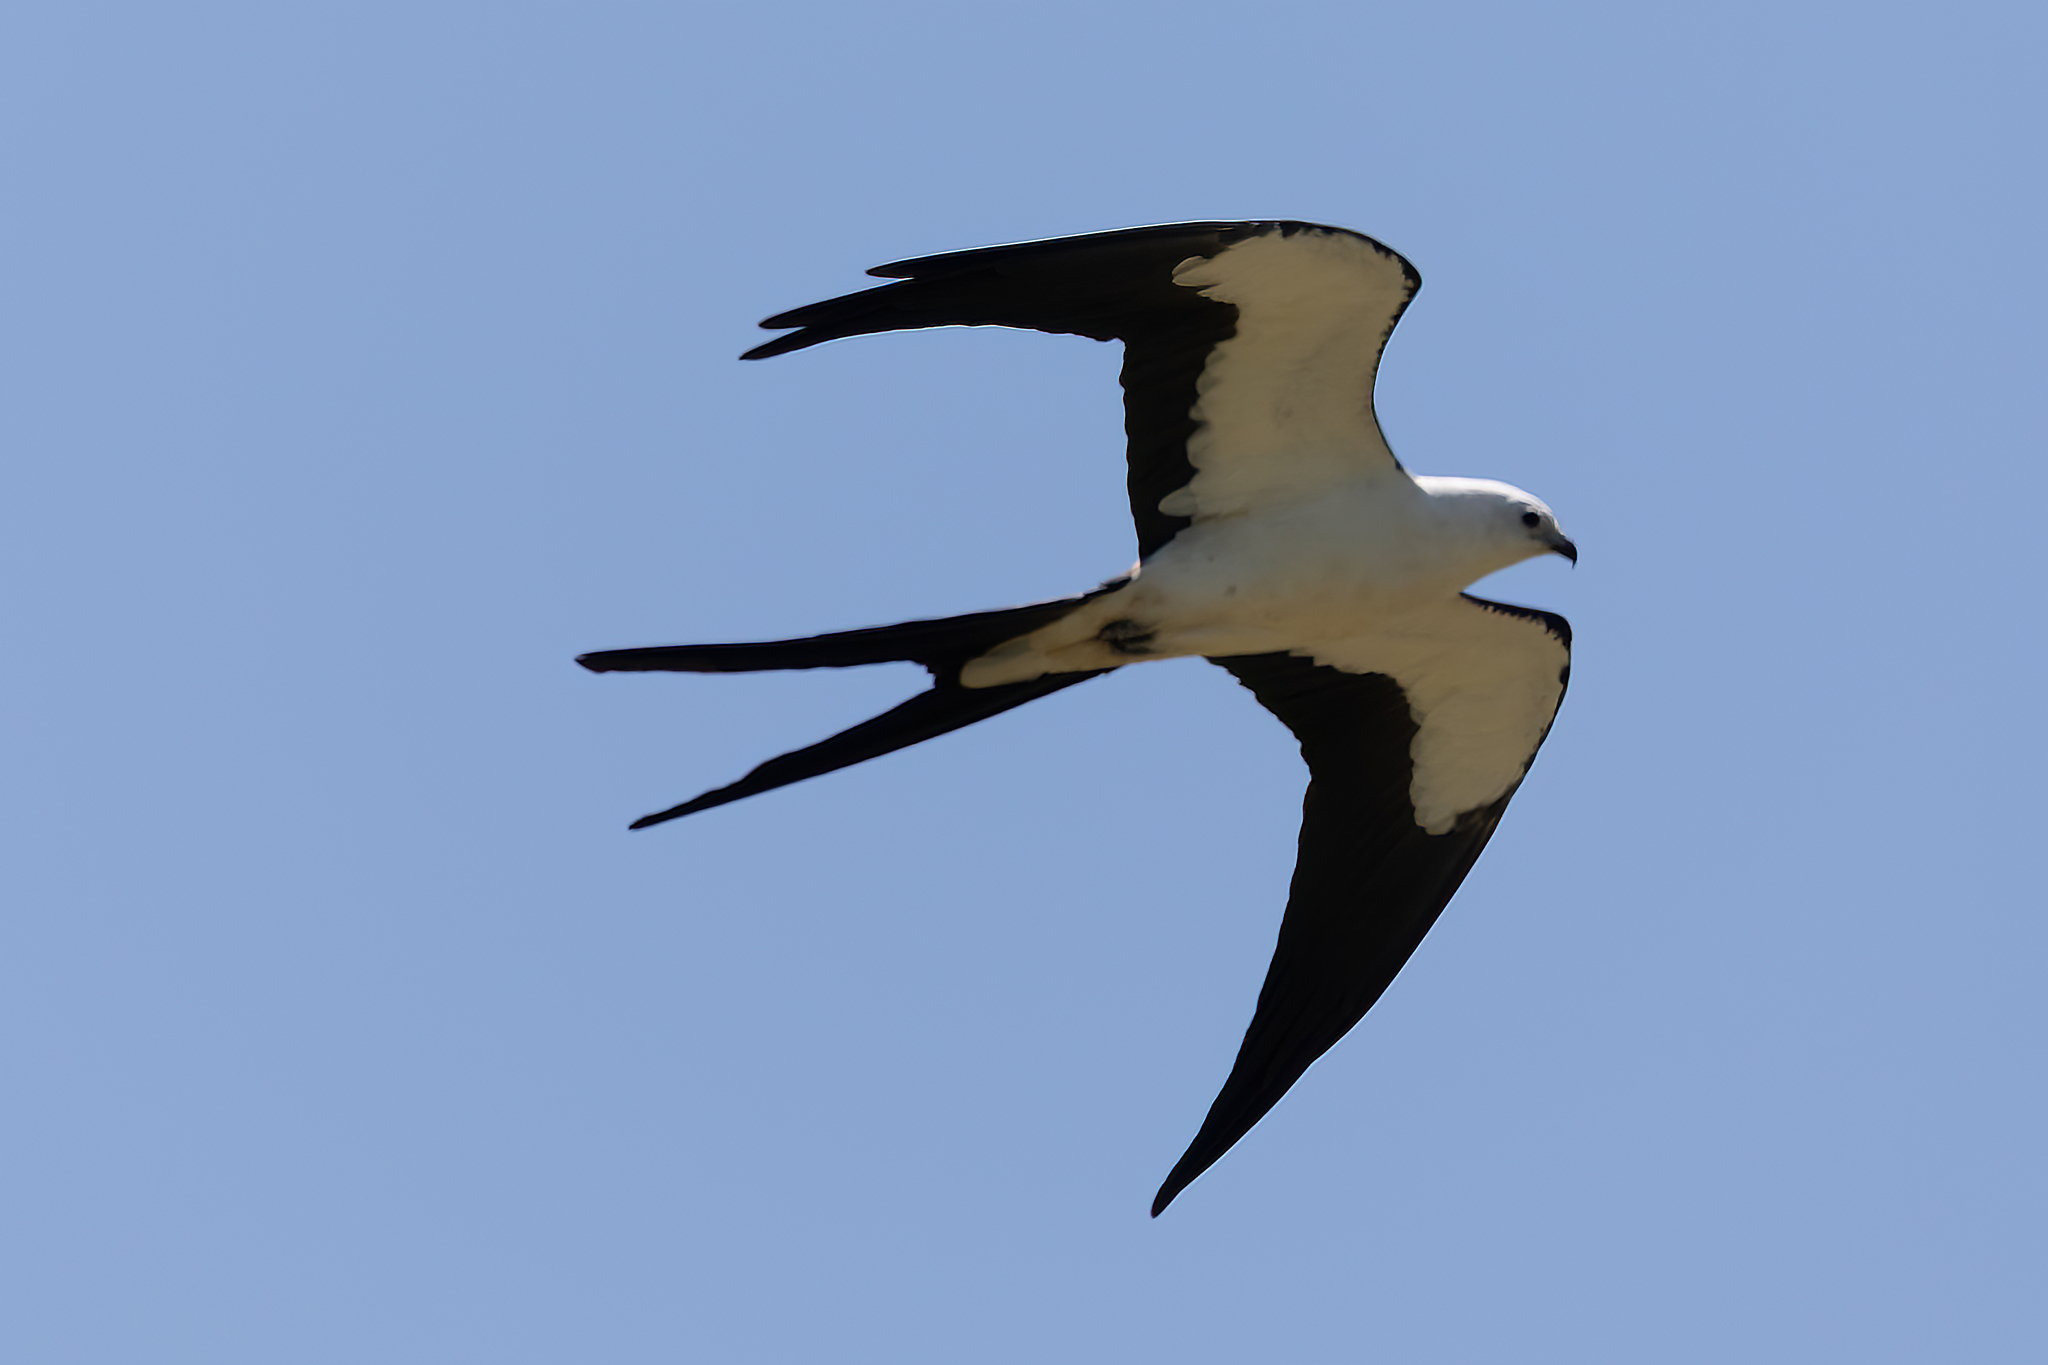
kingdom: Animalia
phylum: Chordata
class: Aves
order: Accipitriformes
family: Accipitridae
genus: Elanoides
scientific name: Elanoides forficatus
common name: Swallow-tailed kite
